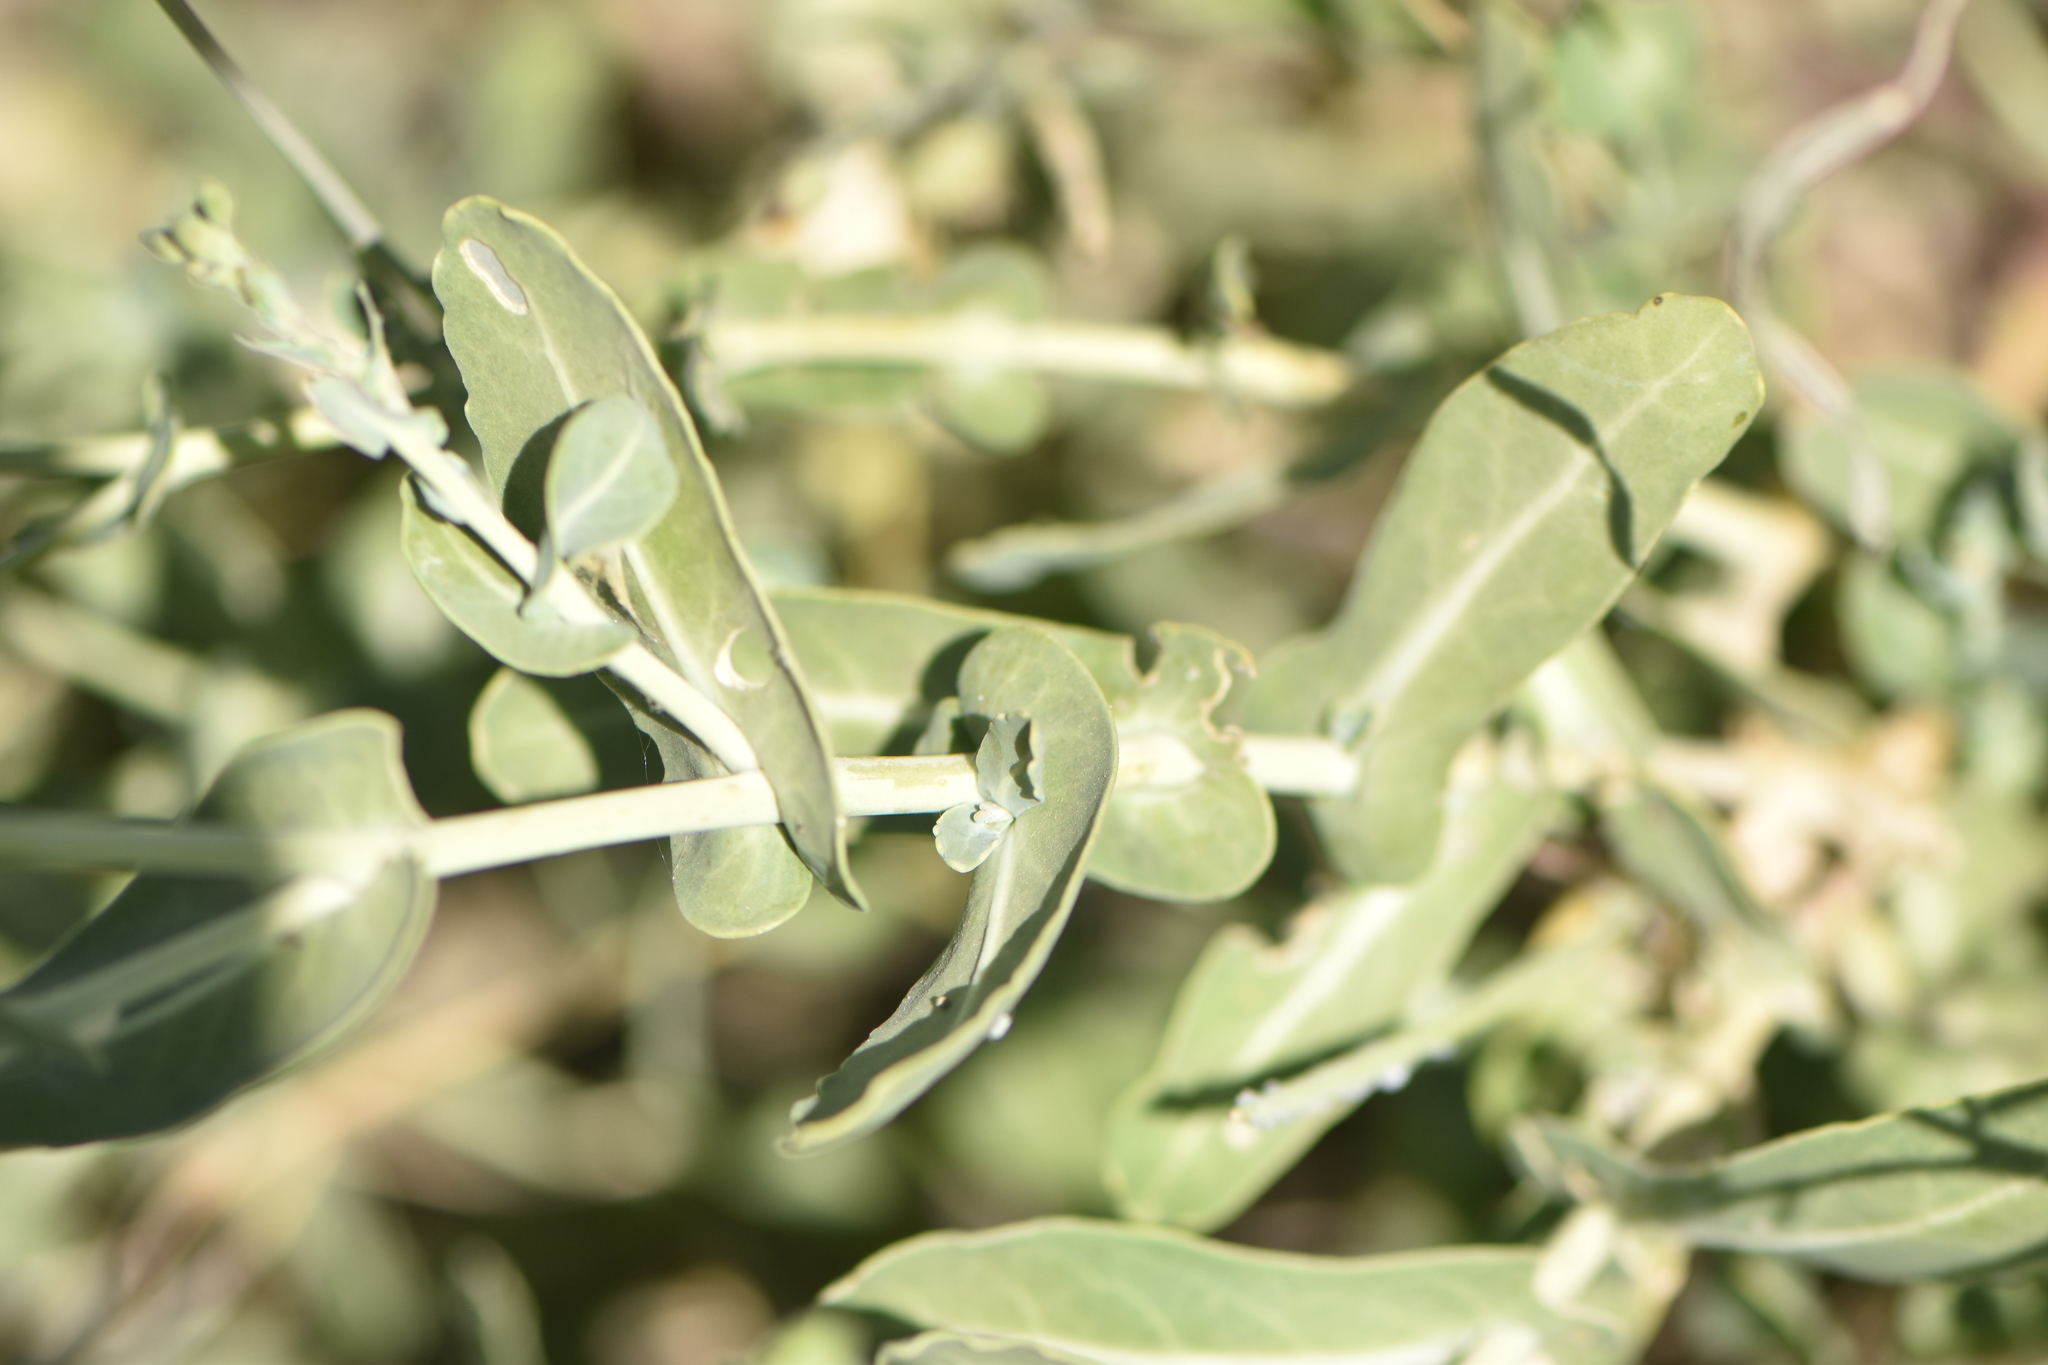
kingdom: Plantae
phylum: Tracheophyta
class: Magnoliopsida
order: Brassicales
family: Brassicaceae
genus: Moricandia
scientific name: Moricandia arvensis
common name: Purple mistress
